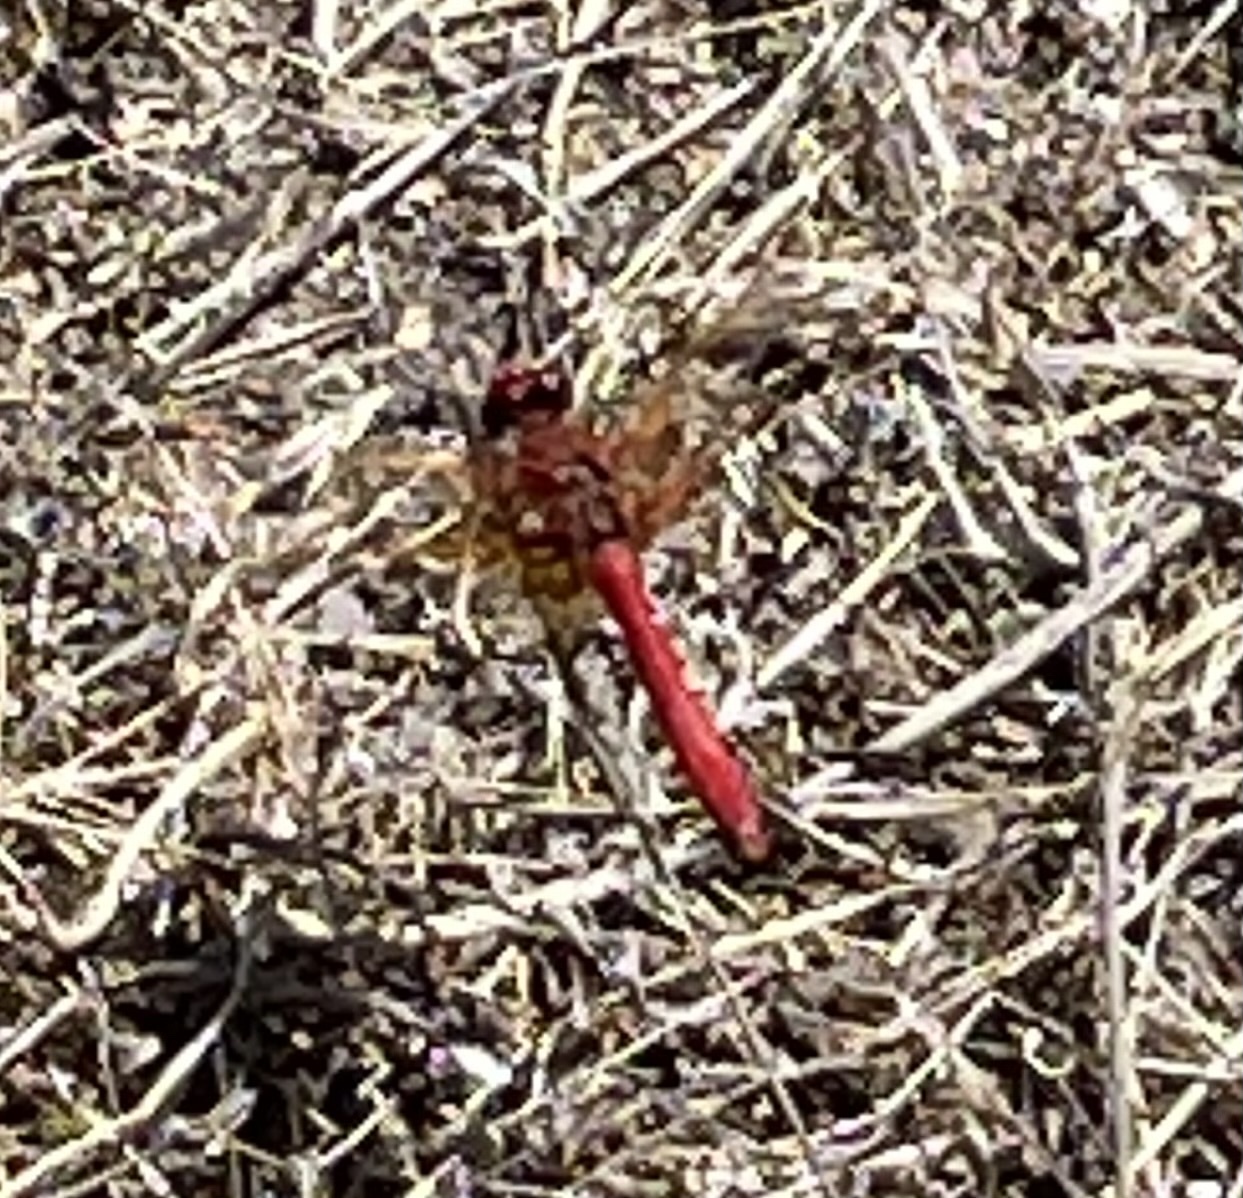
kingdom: Animalia
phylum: Arthropoda
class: Insecta
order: Odonata
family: Libellulidae
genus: Sympetrum
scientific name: Sympetrum illotum
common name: Cardinal meadowhawk
